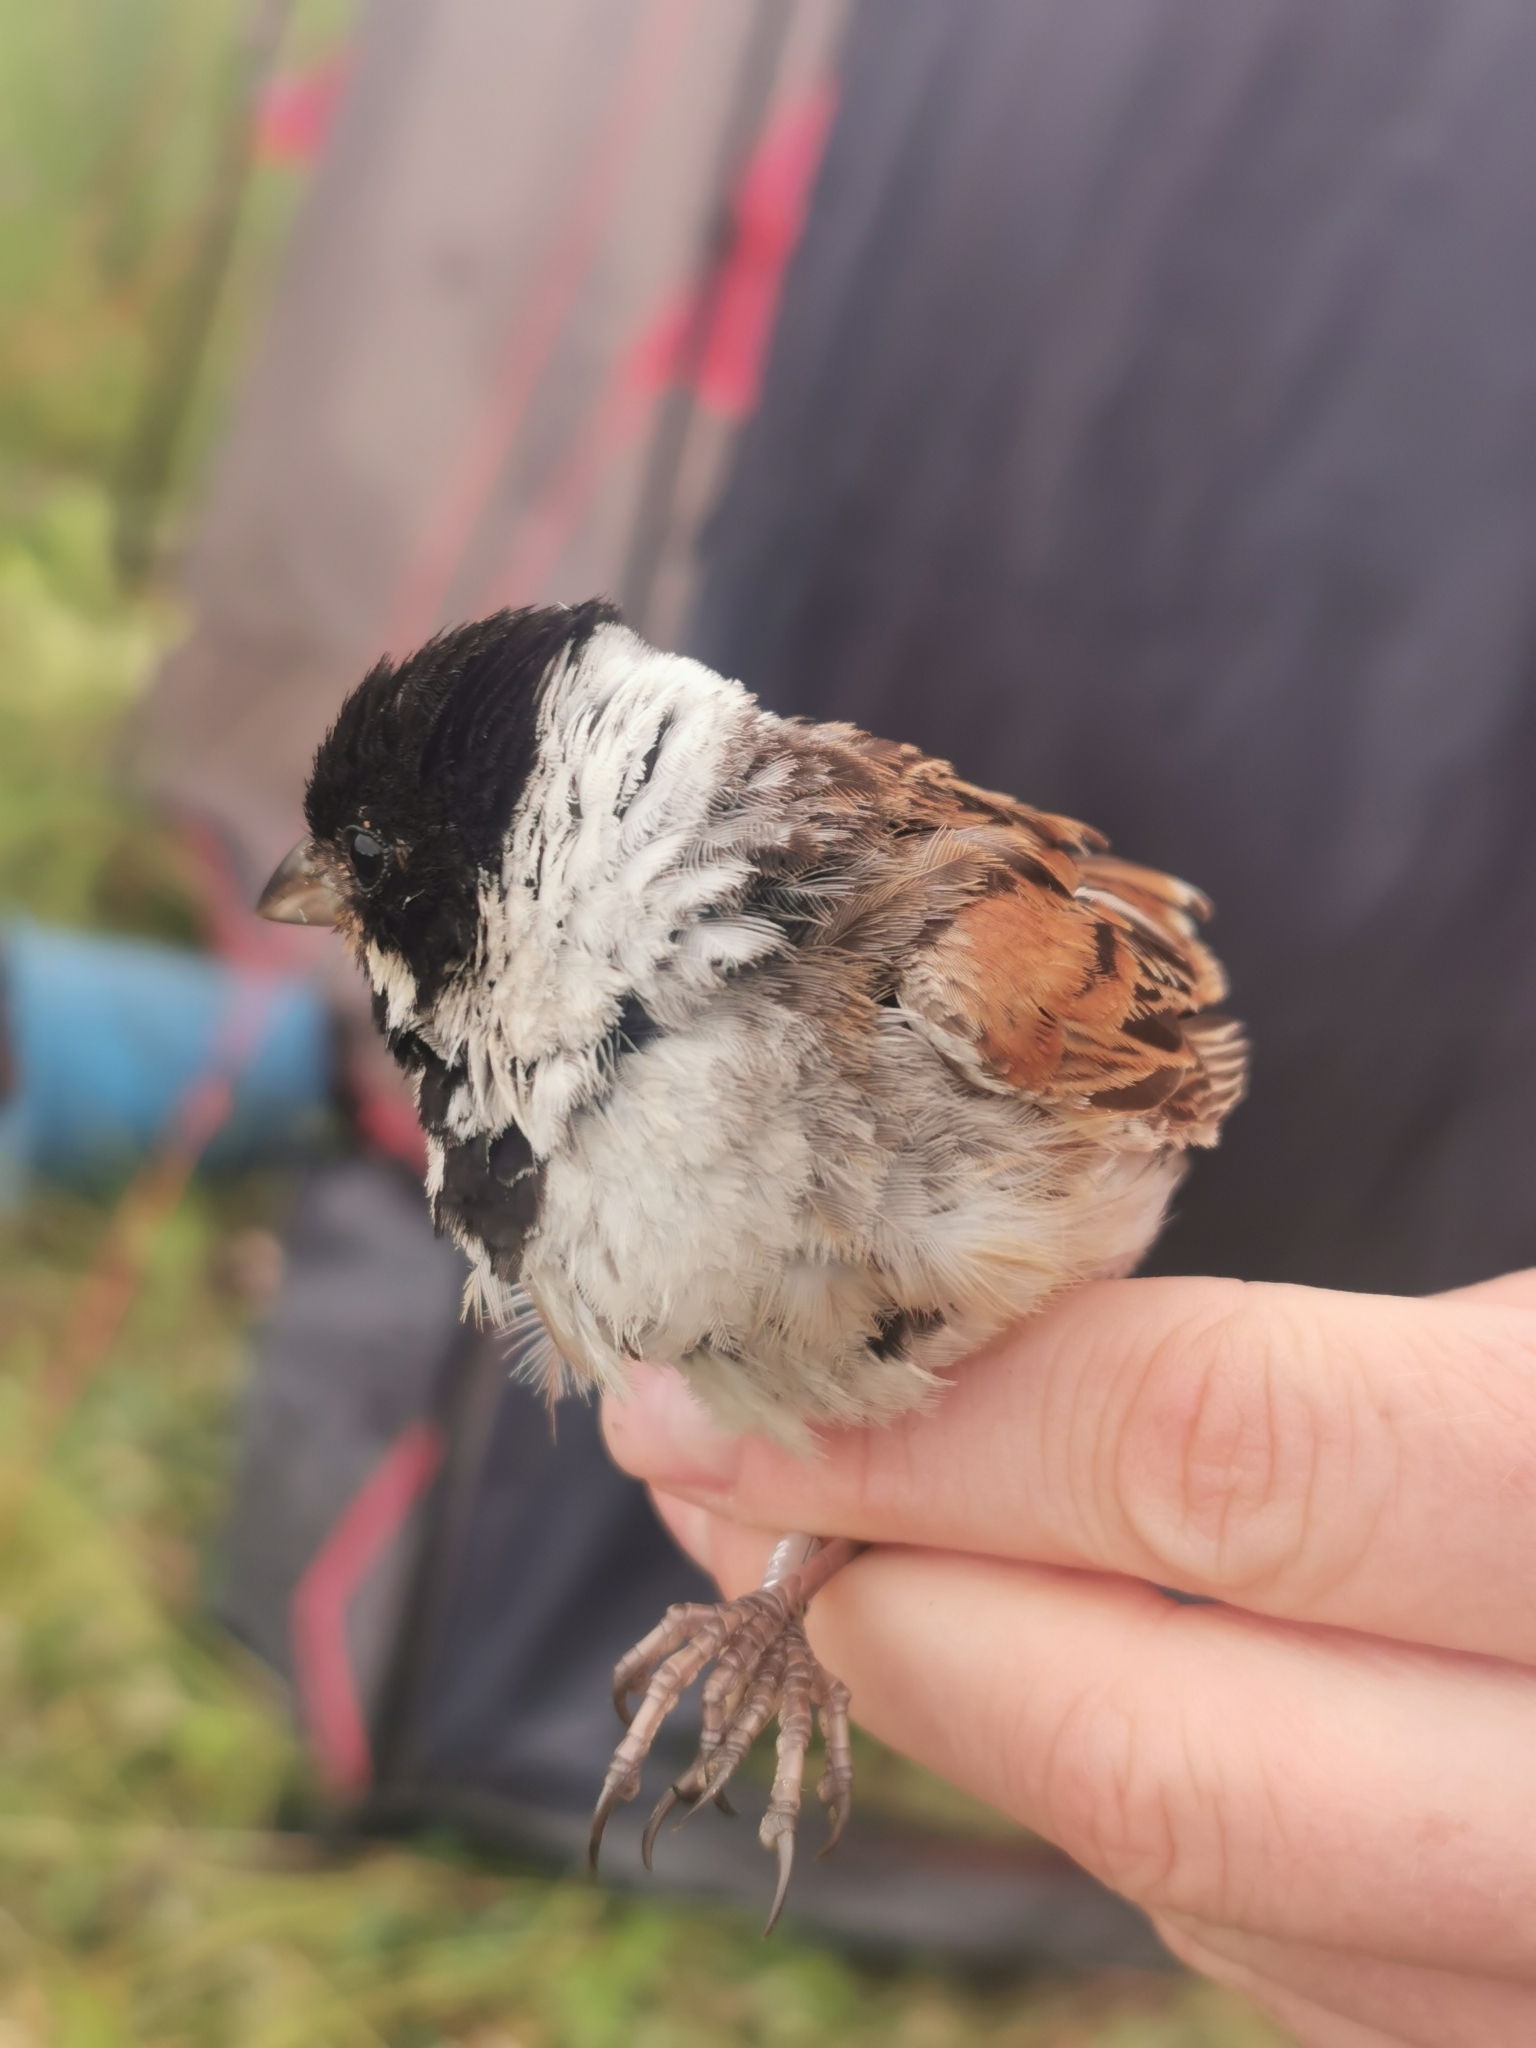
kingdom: Animalia
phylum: Chordata
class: Aves
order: Passeriformes
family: Emberizidae
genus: Emberiza
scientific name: Emberiza schoeniclus
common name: Reed bunting
